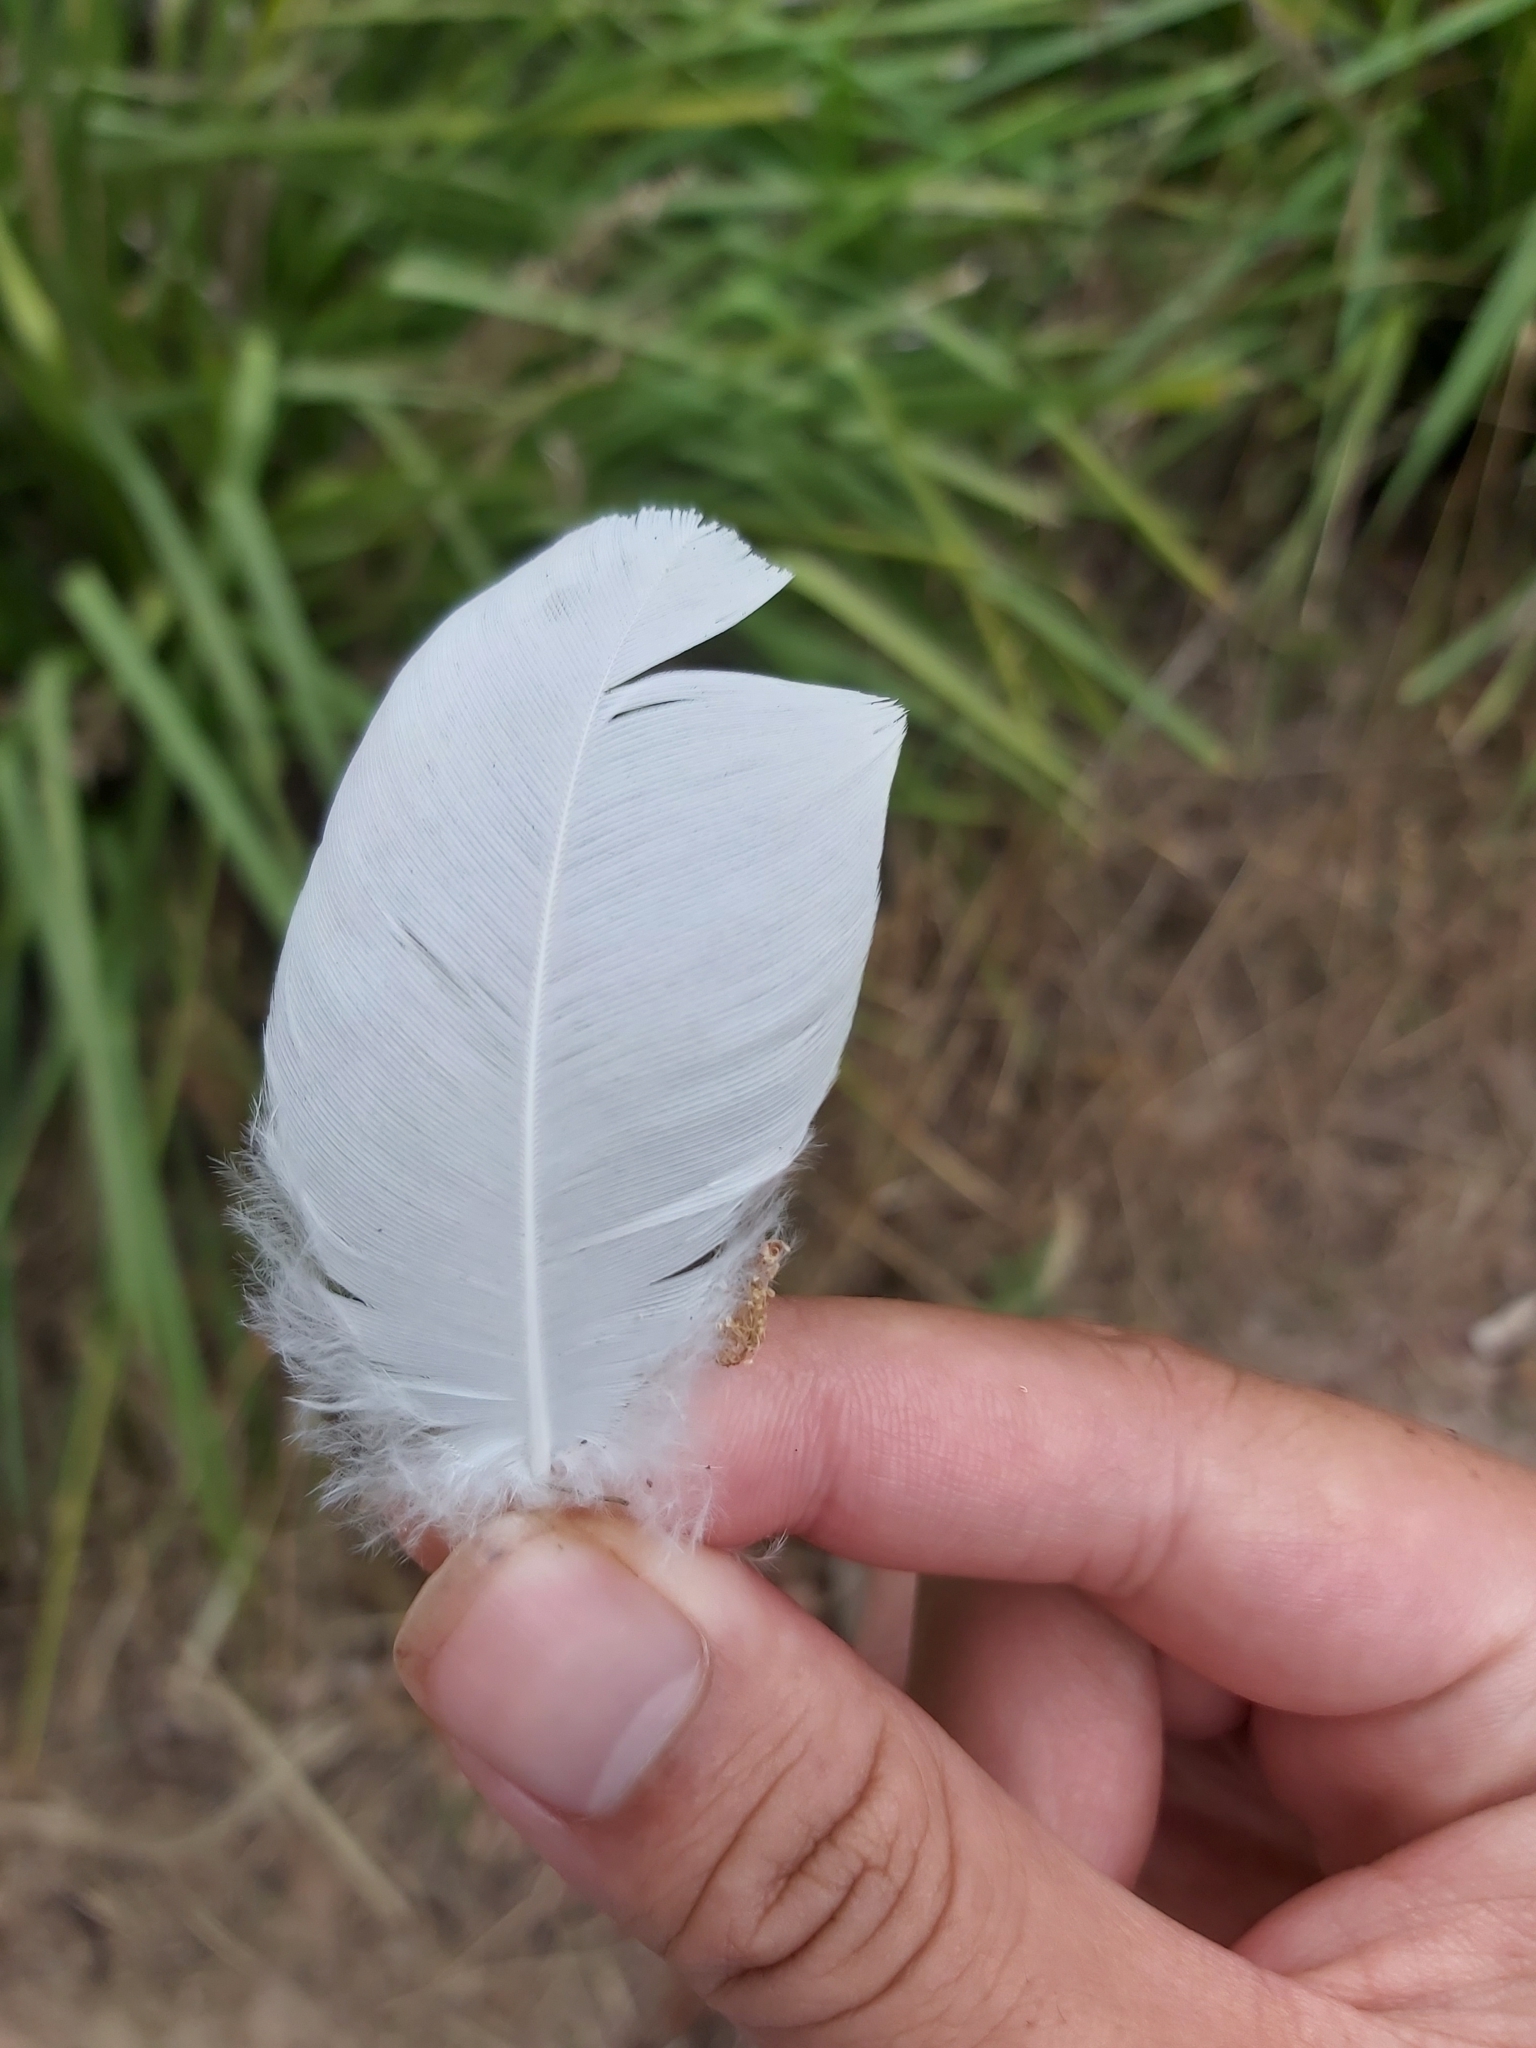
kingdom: Animalia
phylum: Chordata
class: Aves
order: Psittaciformes
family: Psittacidae
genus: Cacatua
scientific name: Cacatua galerita
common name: Sulphur-crested cockatoo
